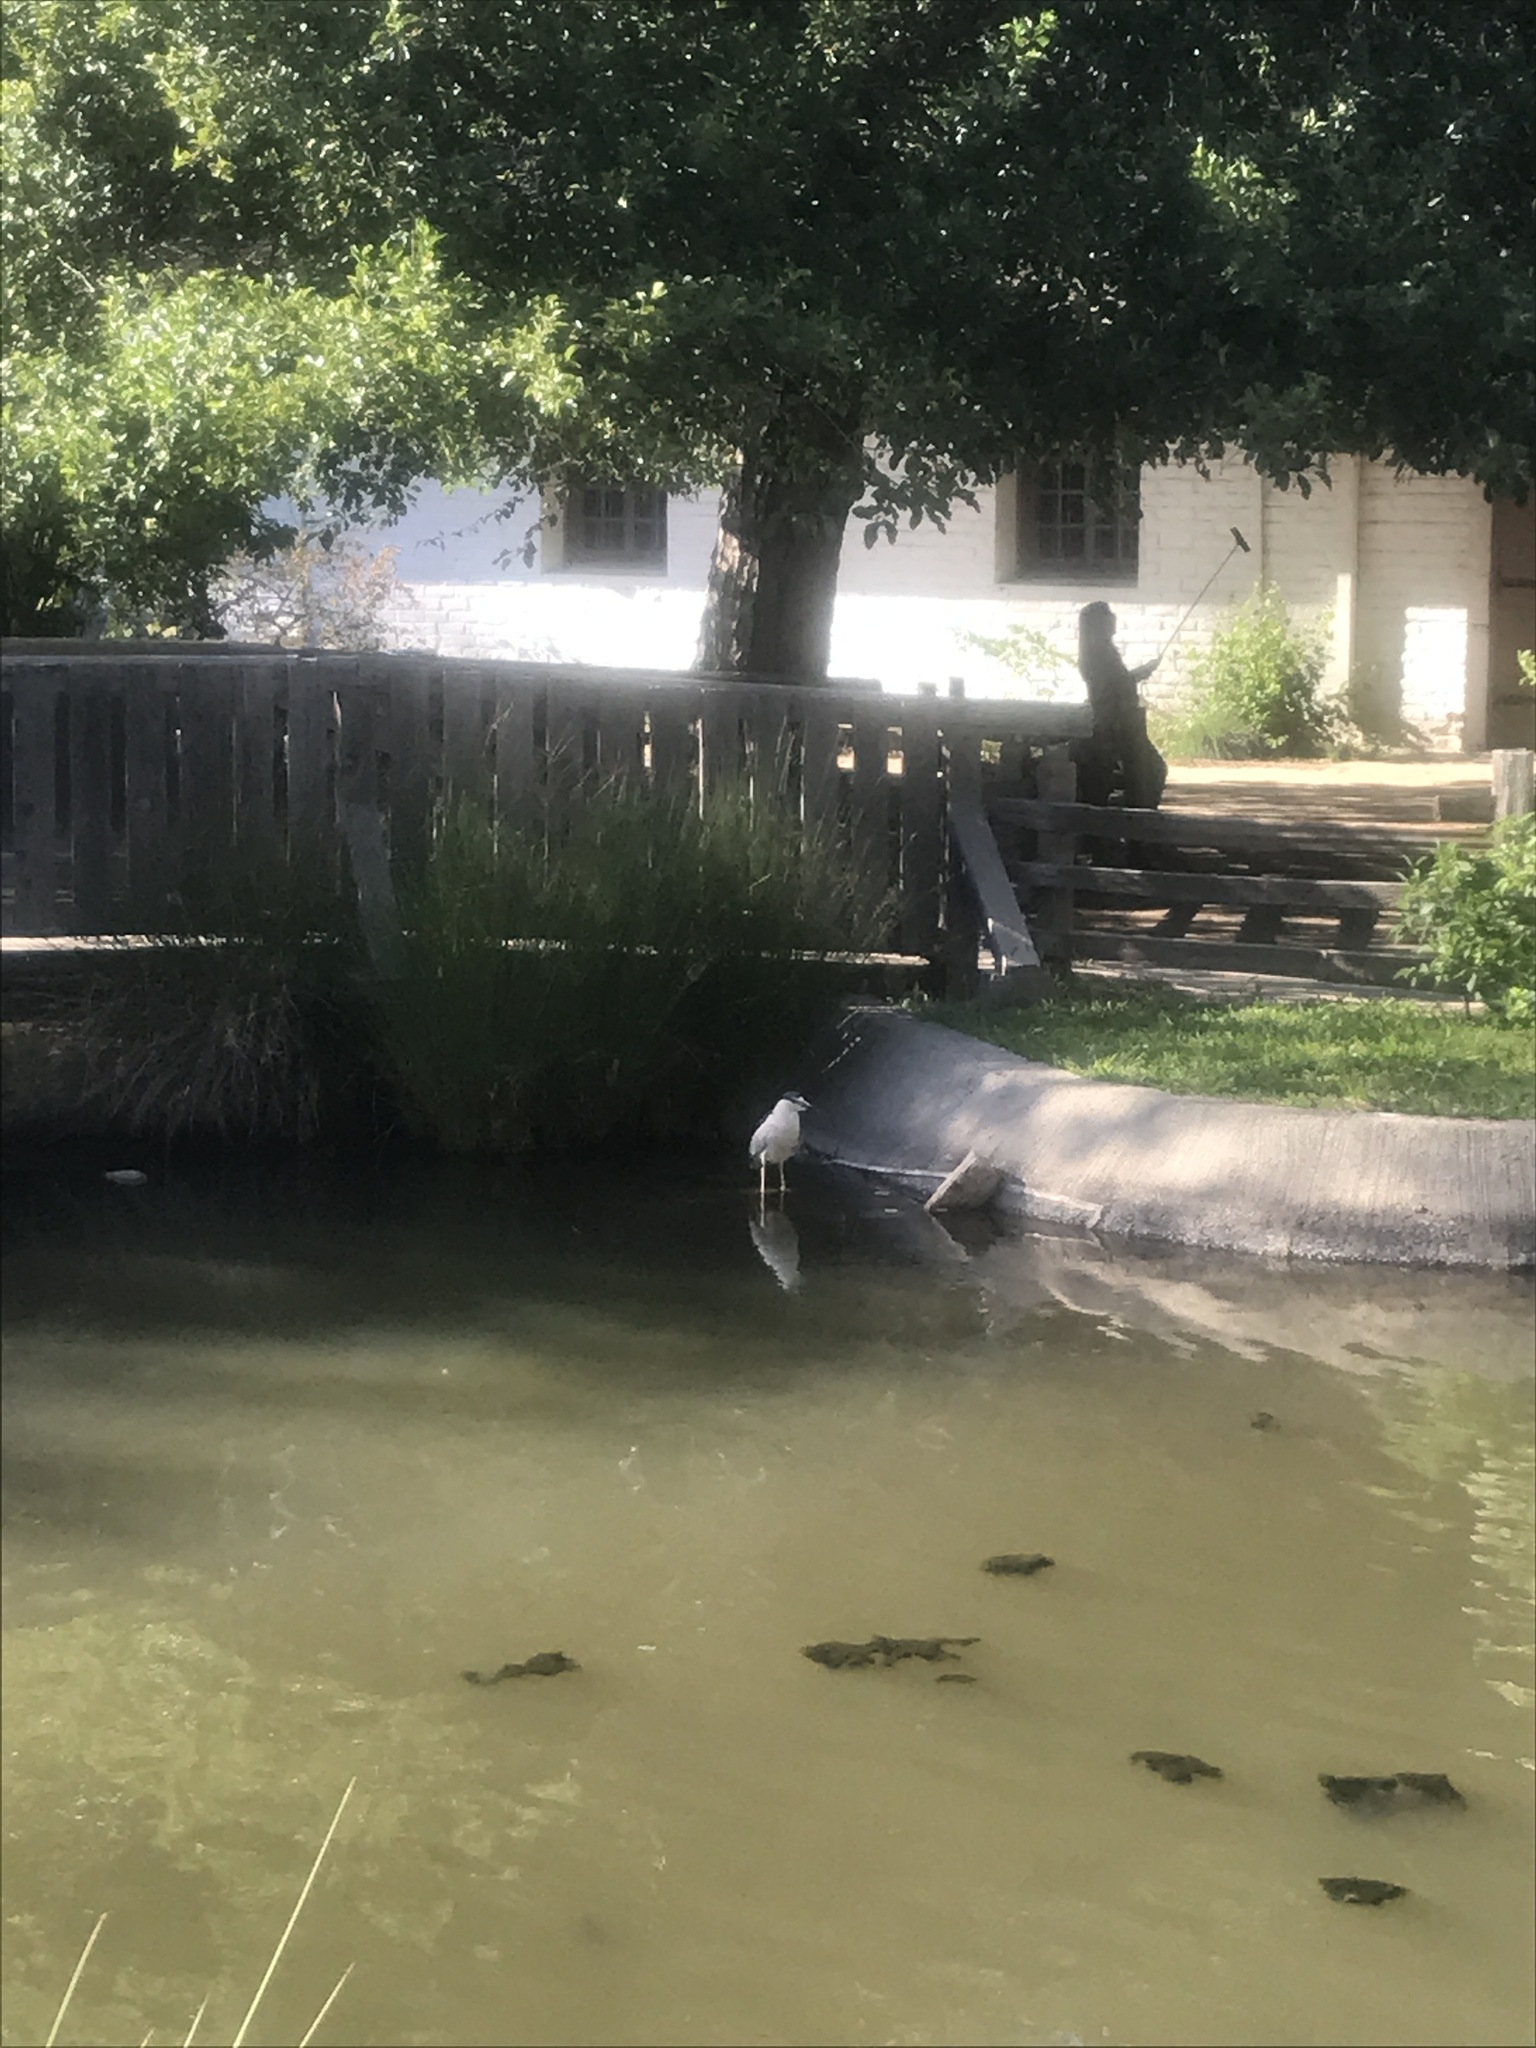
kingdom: Animalia
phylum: Chordata
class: Aves
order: Pelecaniformes
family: Ardeidae
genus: Nycticorax
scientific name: Nycticorax nycticorax
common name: Black-crowned night heron
